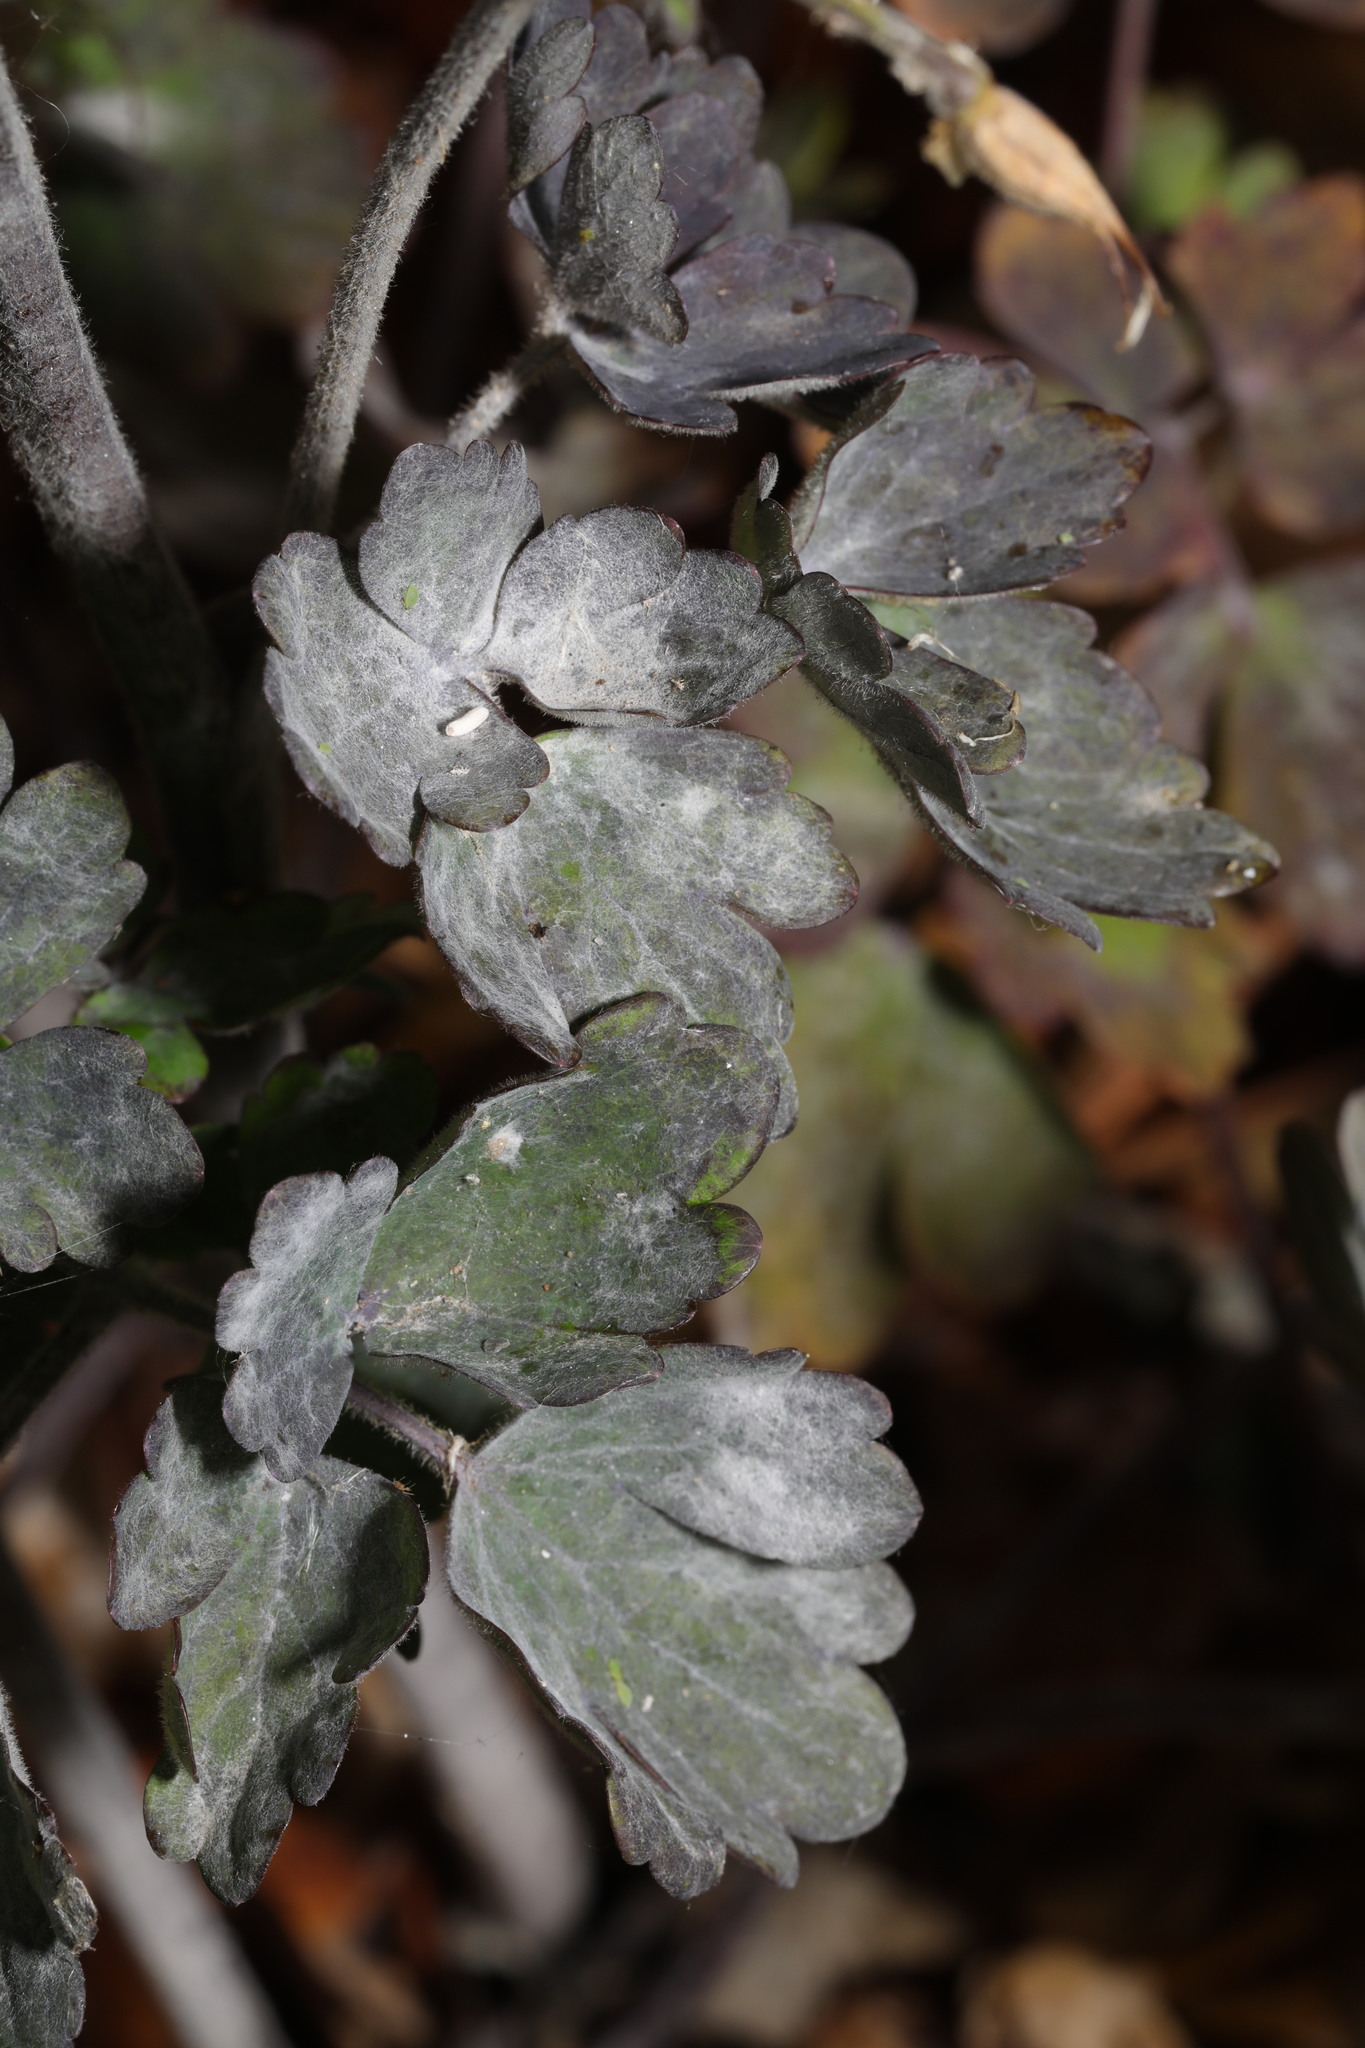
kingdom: Fungi
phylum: Ascomycota
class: Leotiomycetes
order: Helotiales
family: Erysiphaceae
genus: Erysiphe
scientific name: Erysiphe aquilegiae
